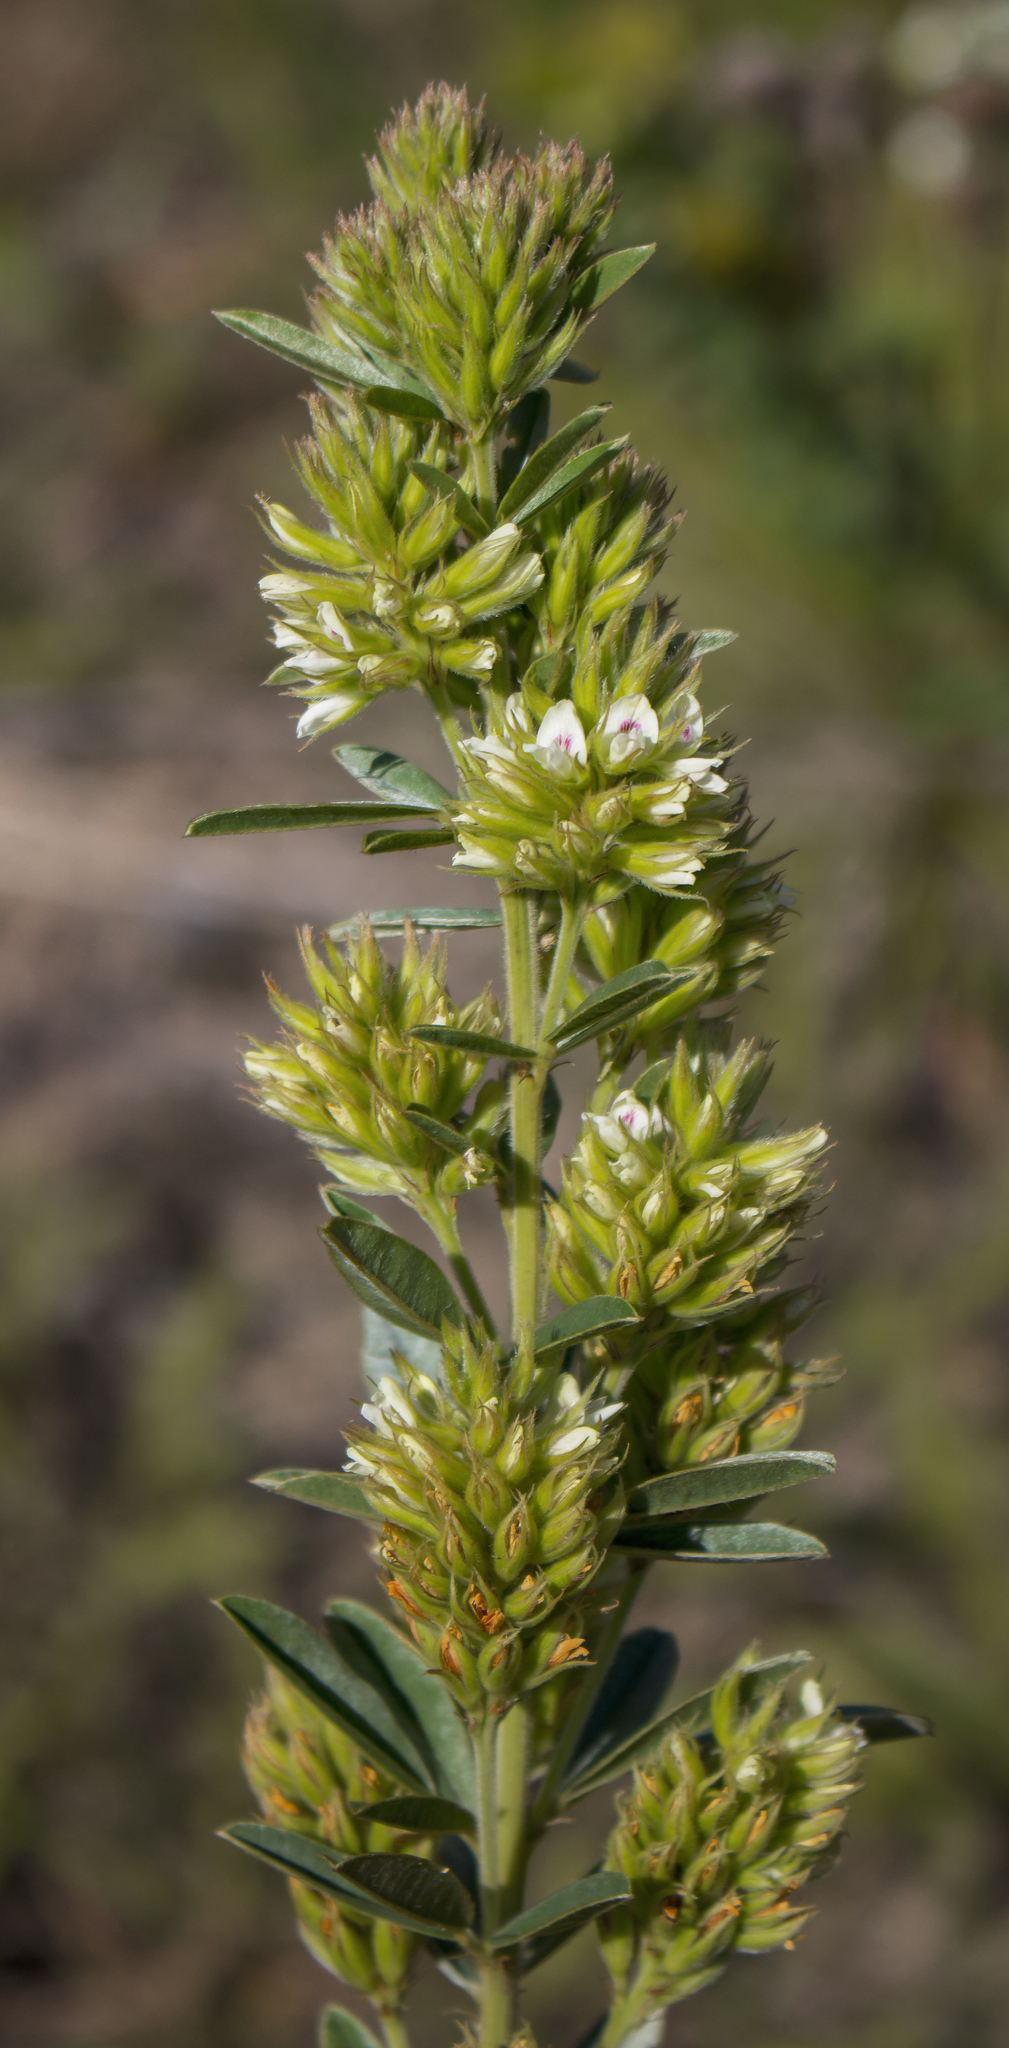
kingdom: Plantae
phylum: Tracheophyta
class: Magnoliopsida
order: Fabales
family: Fabaceae
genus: Lespedeza
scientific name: Lespedeza capitata
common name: Dusty clover
